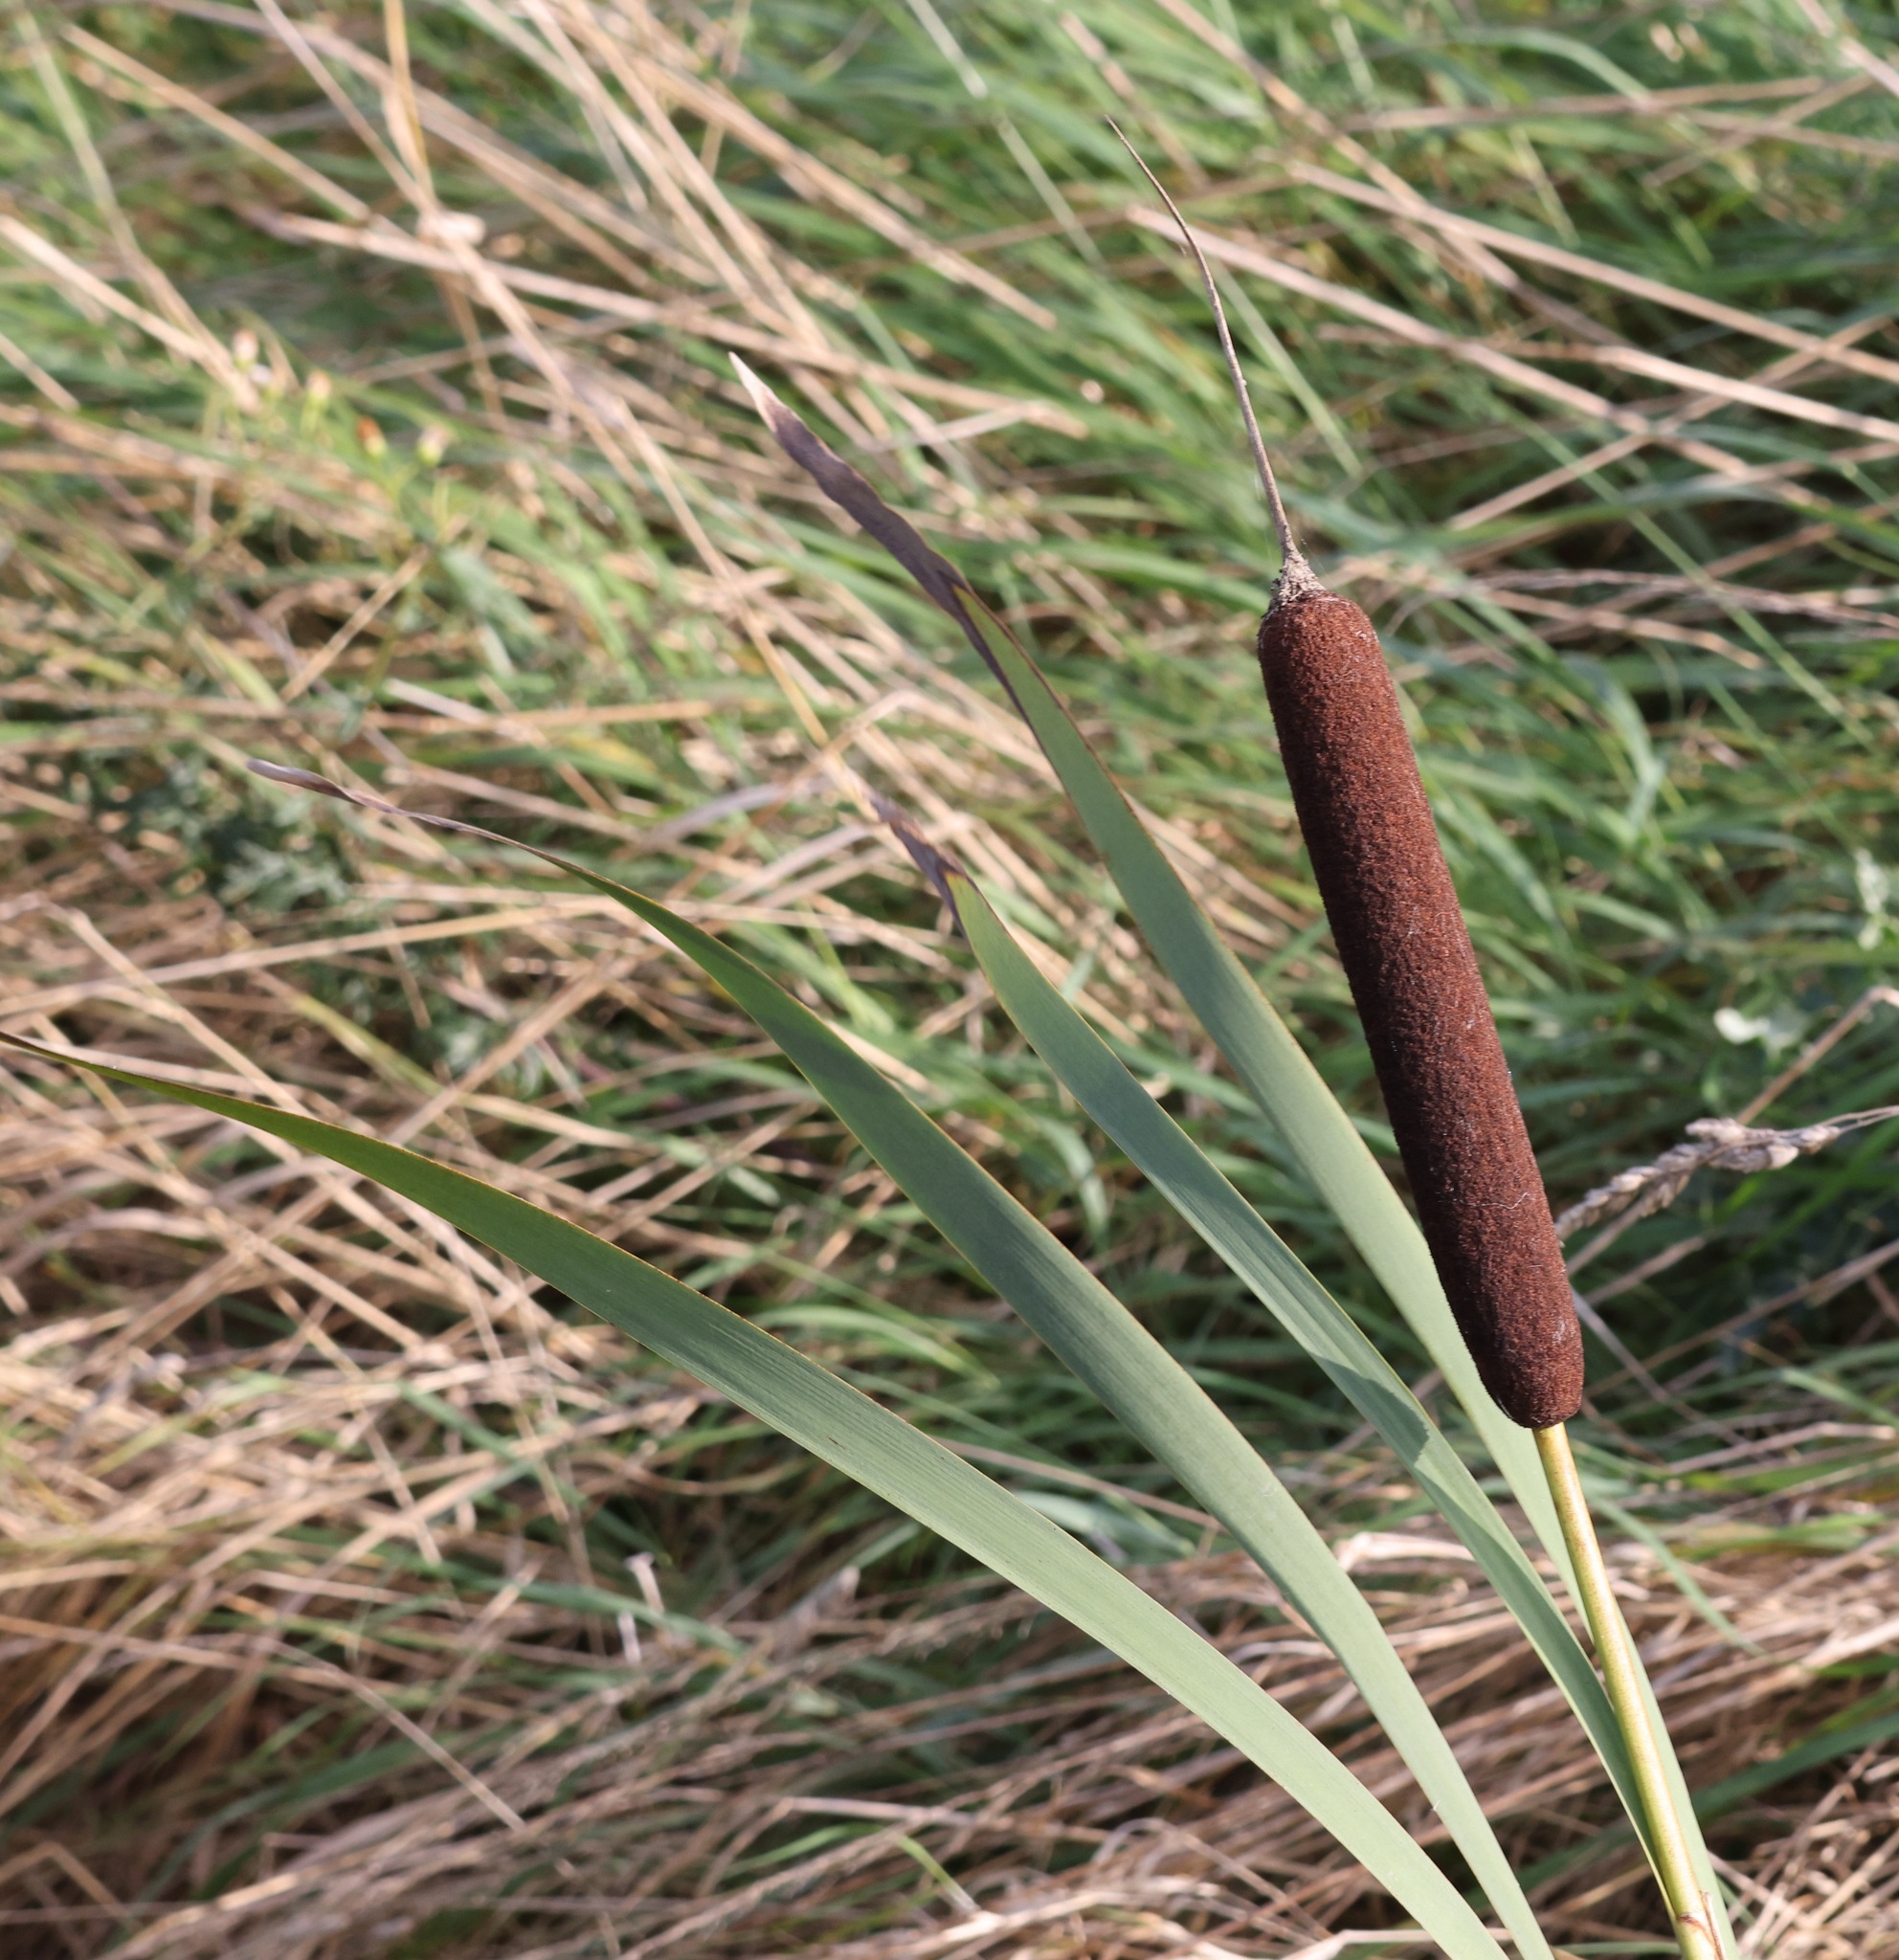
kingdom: Plantae
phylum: Tracheophyta
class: Liliopsida
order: Poales
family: Typhaceae
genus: Typha
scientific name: Typha latifolia
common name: Broadleaf cattail
